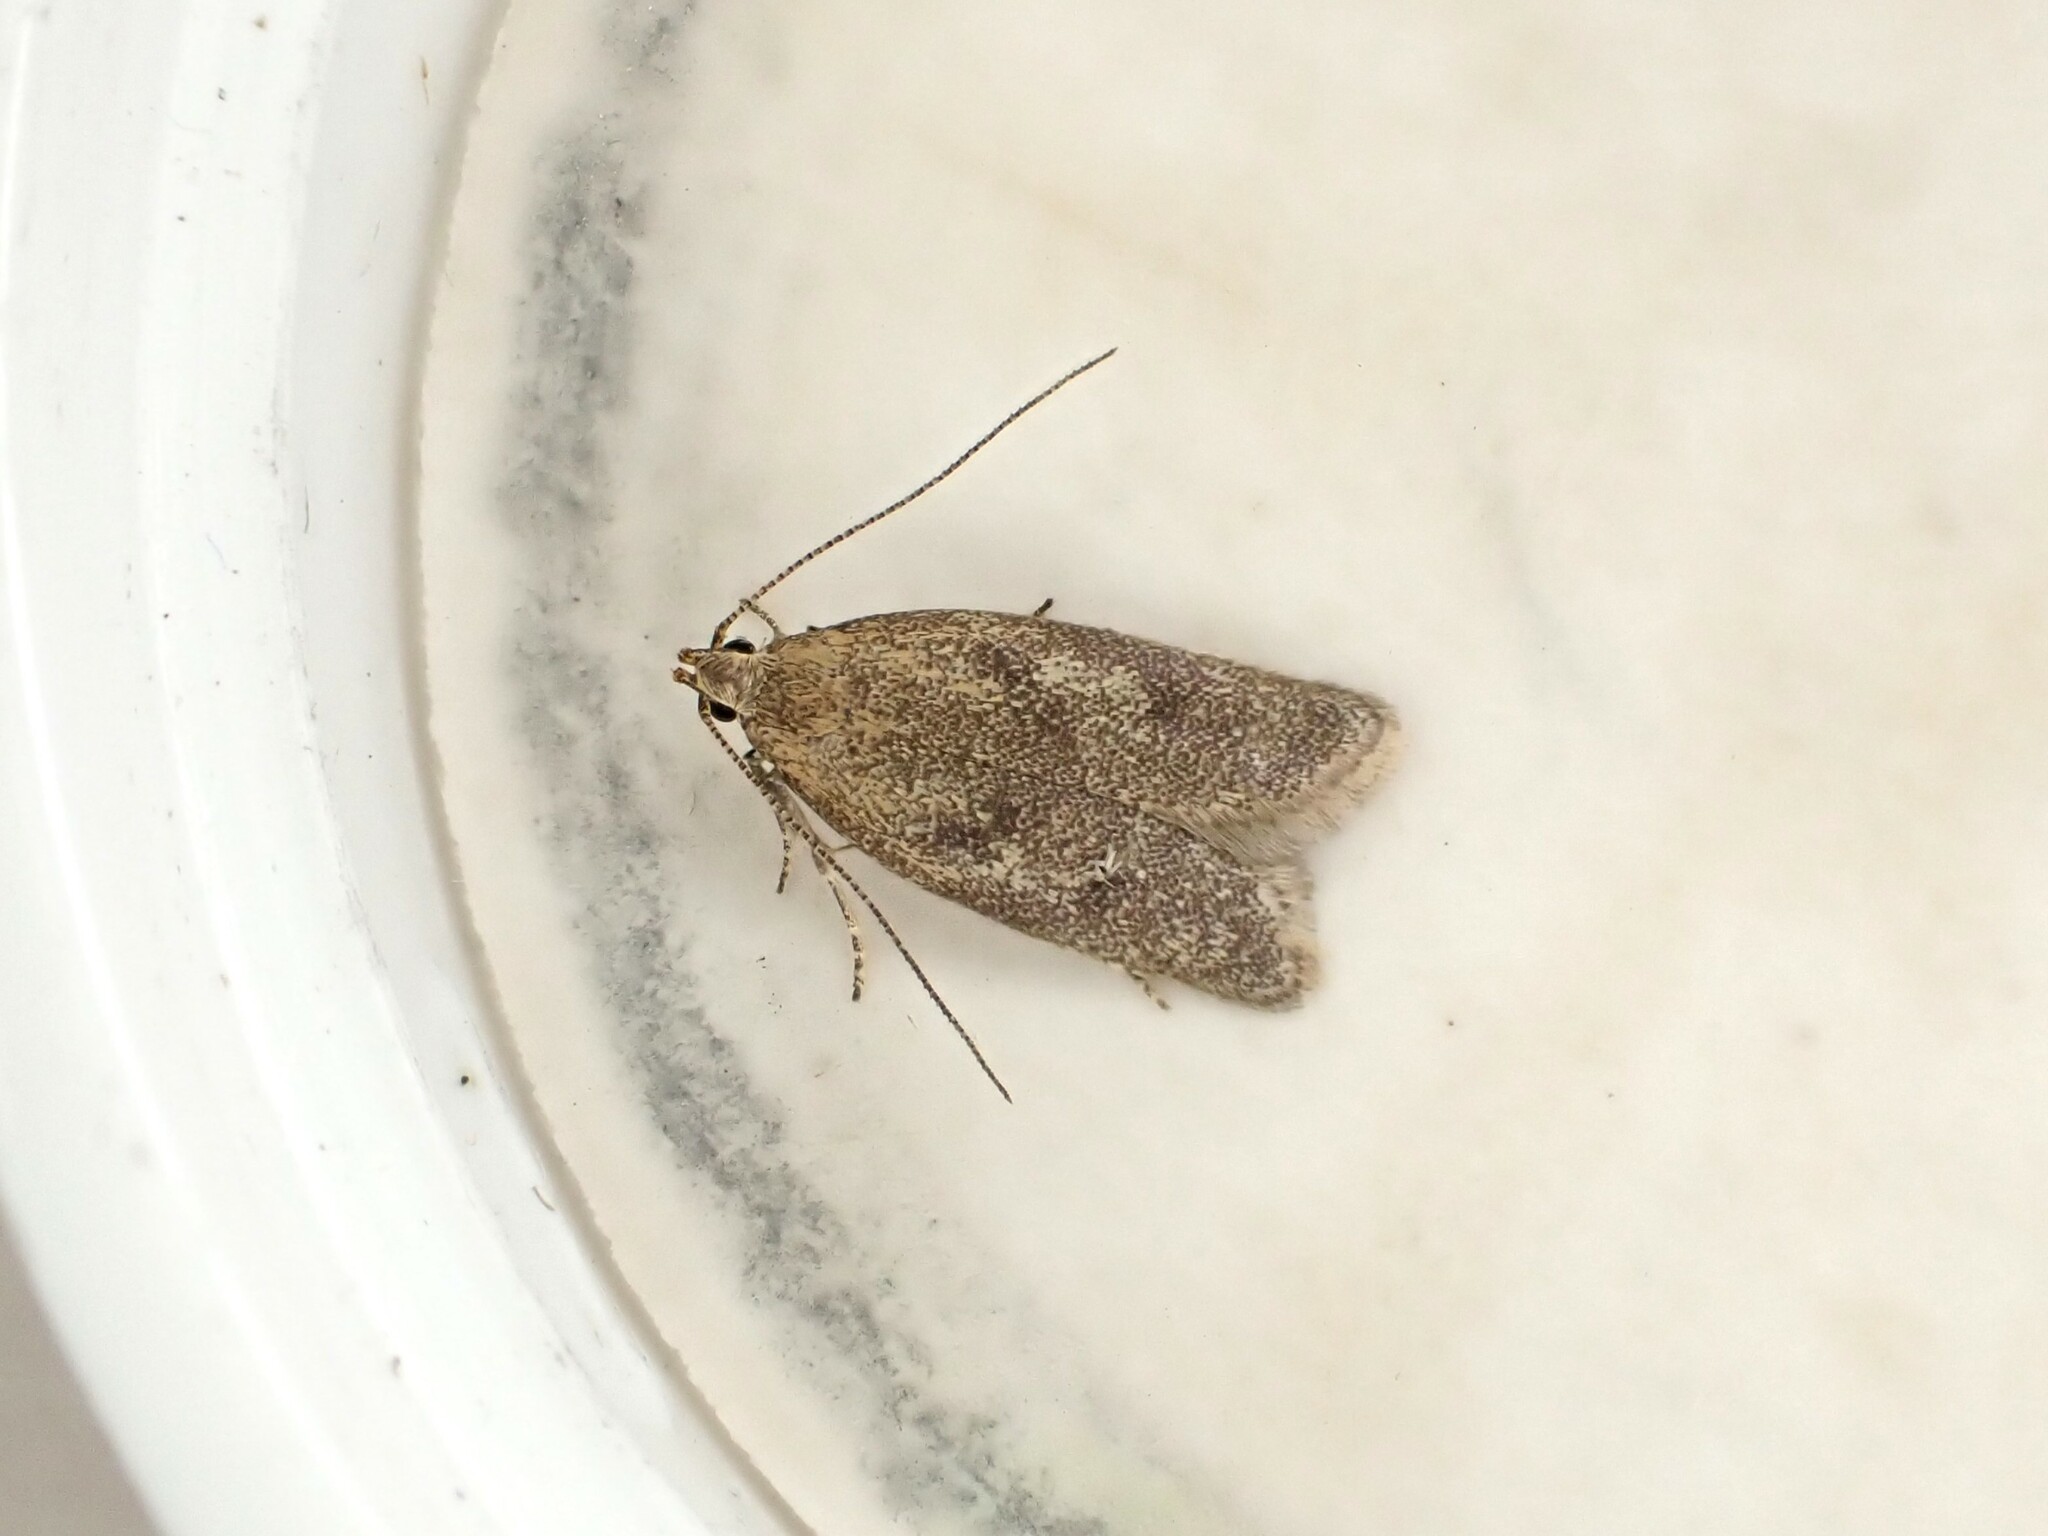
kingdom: Animalia
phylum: Arthropoda
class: Insecta
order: Lepidoptera
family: Oecophoridae
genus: Gymnobathra
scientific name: Gymnobathra tholodella
